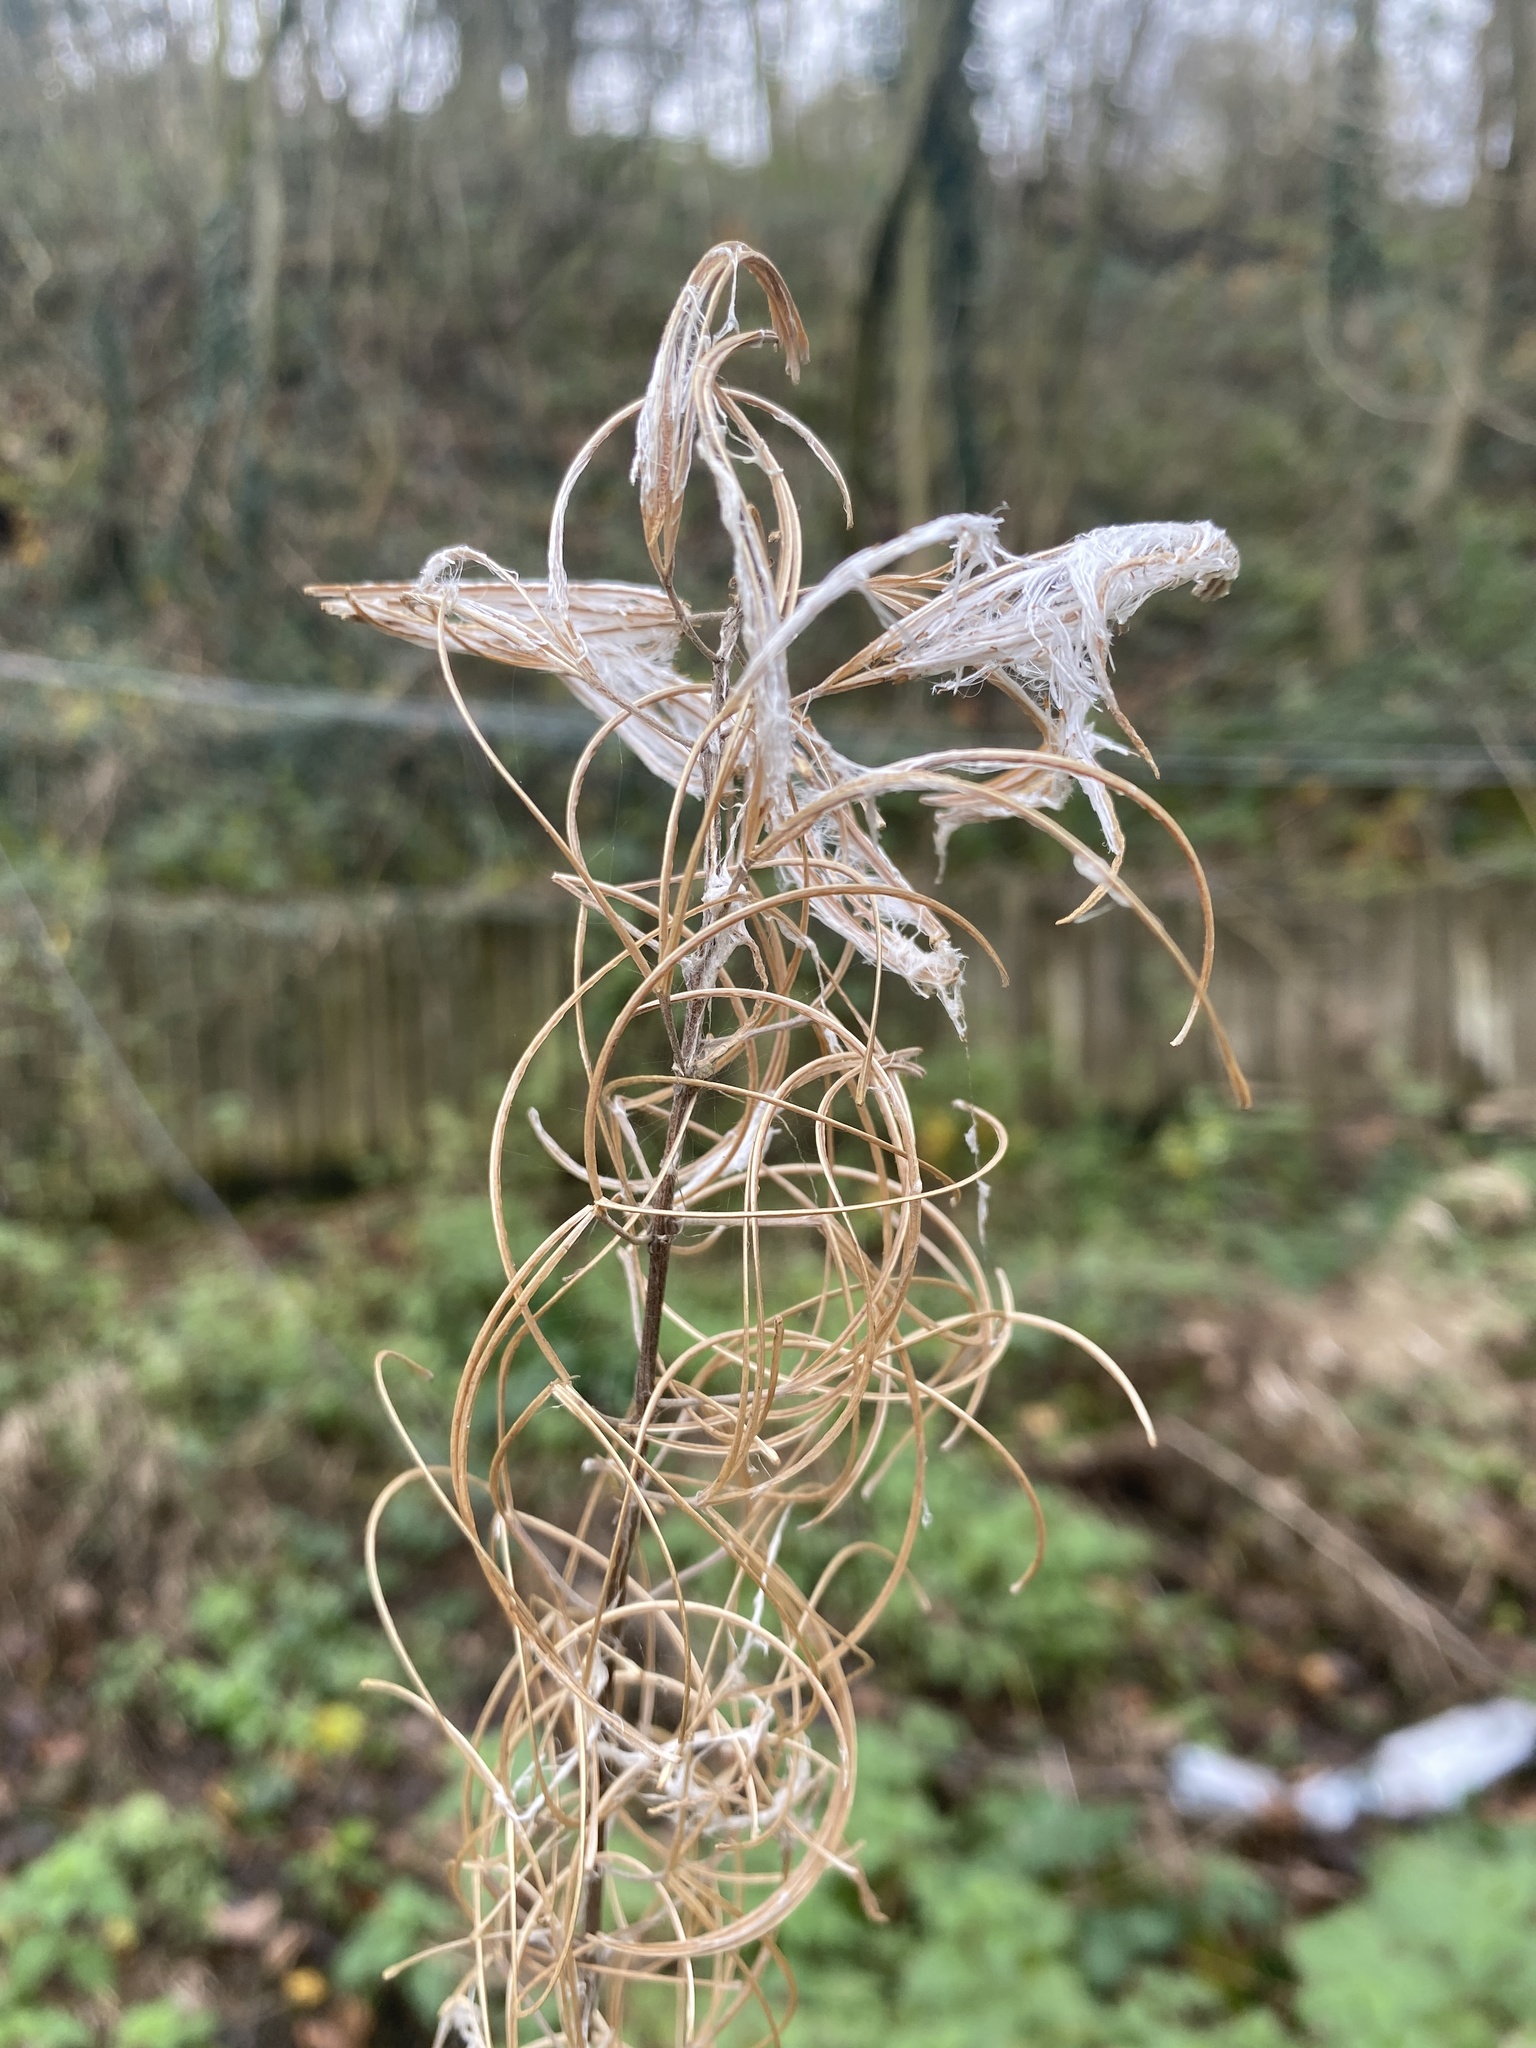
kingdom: Plantae
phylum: Tracheophyta
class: Magnoliopsida
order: Myrtales
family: Onagraceae
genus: Chamaenerion
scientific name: Chamaenerion angustifolium
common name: Fireweed
